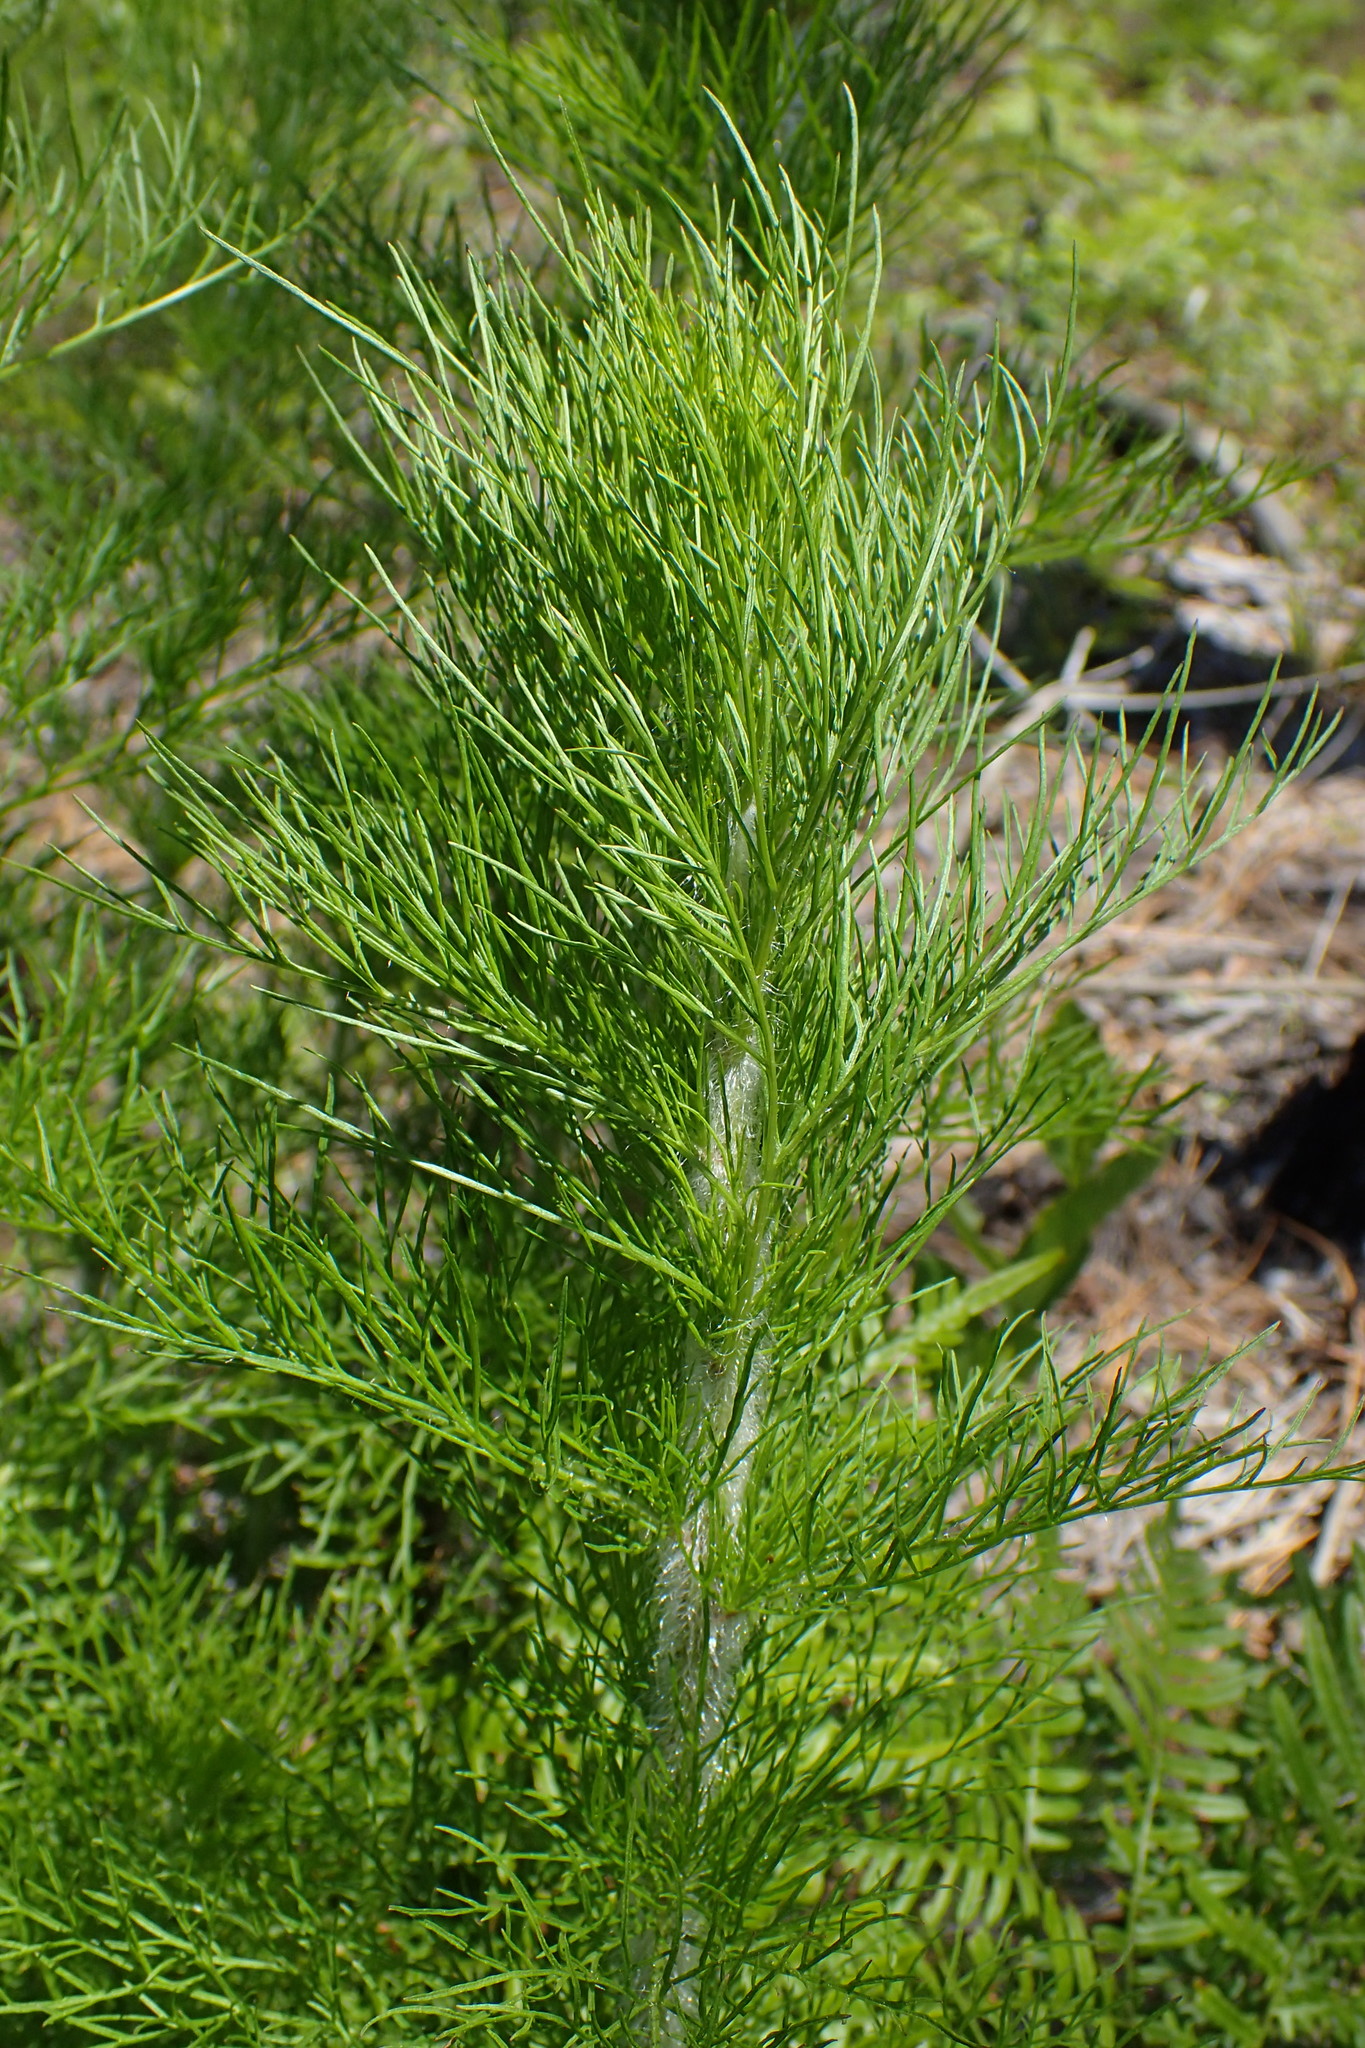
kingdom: Plantae
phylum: Tracheophyta
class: Magnoliopsida
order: Asterales
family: Asteraceae
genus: Eupatorium
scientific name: Eupatorium capillifolium
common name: Dog-fennel
